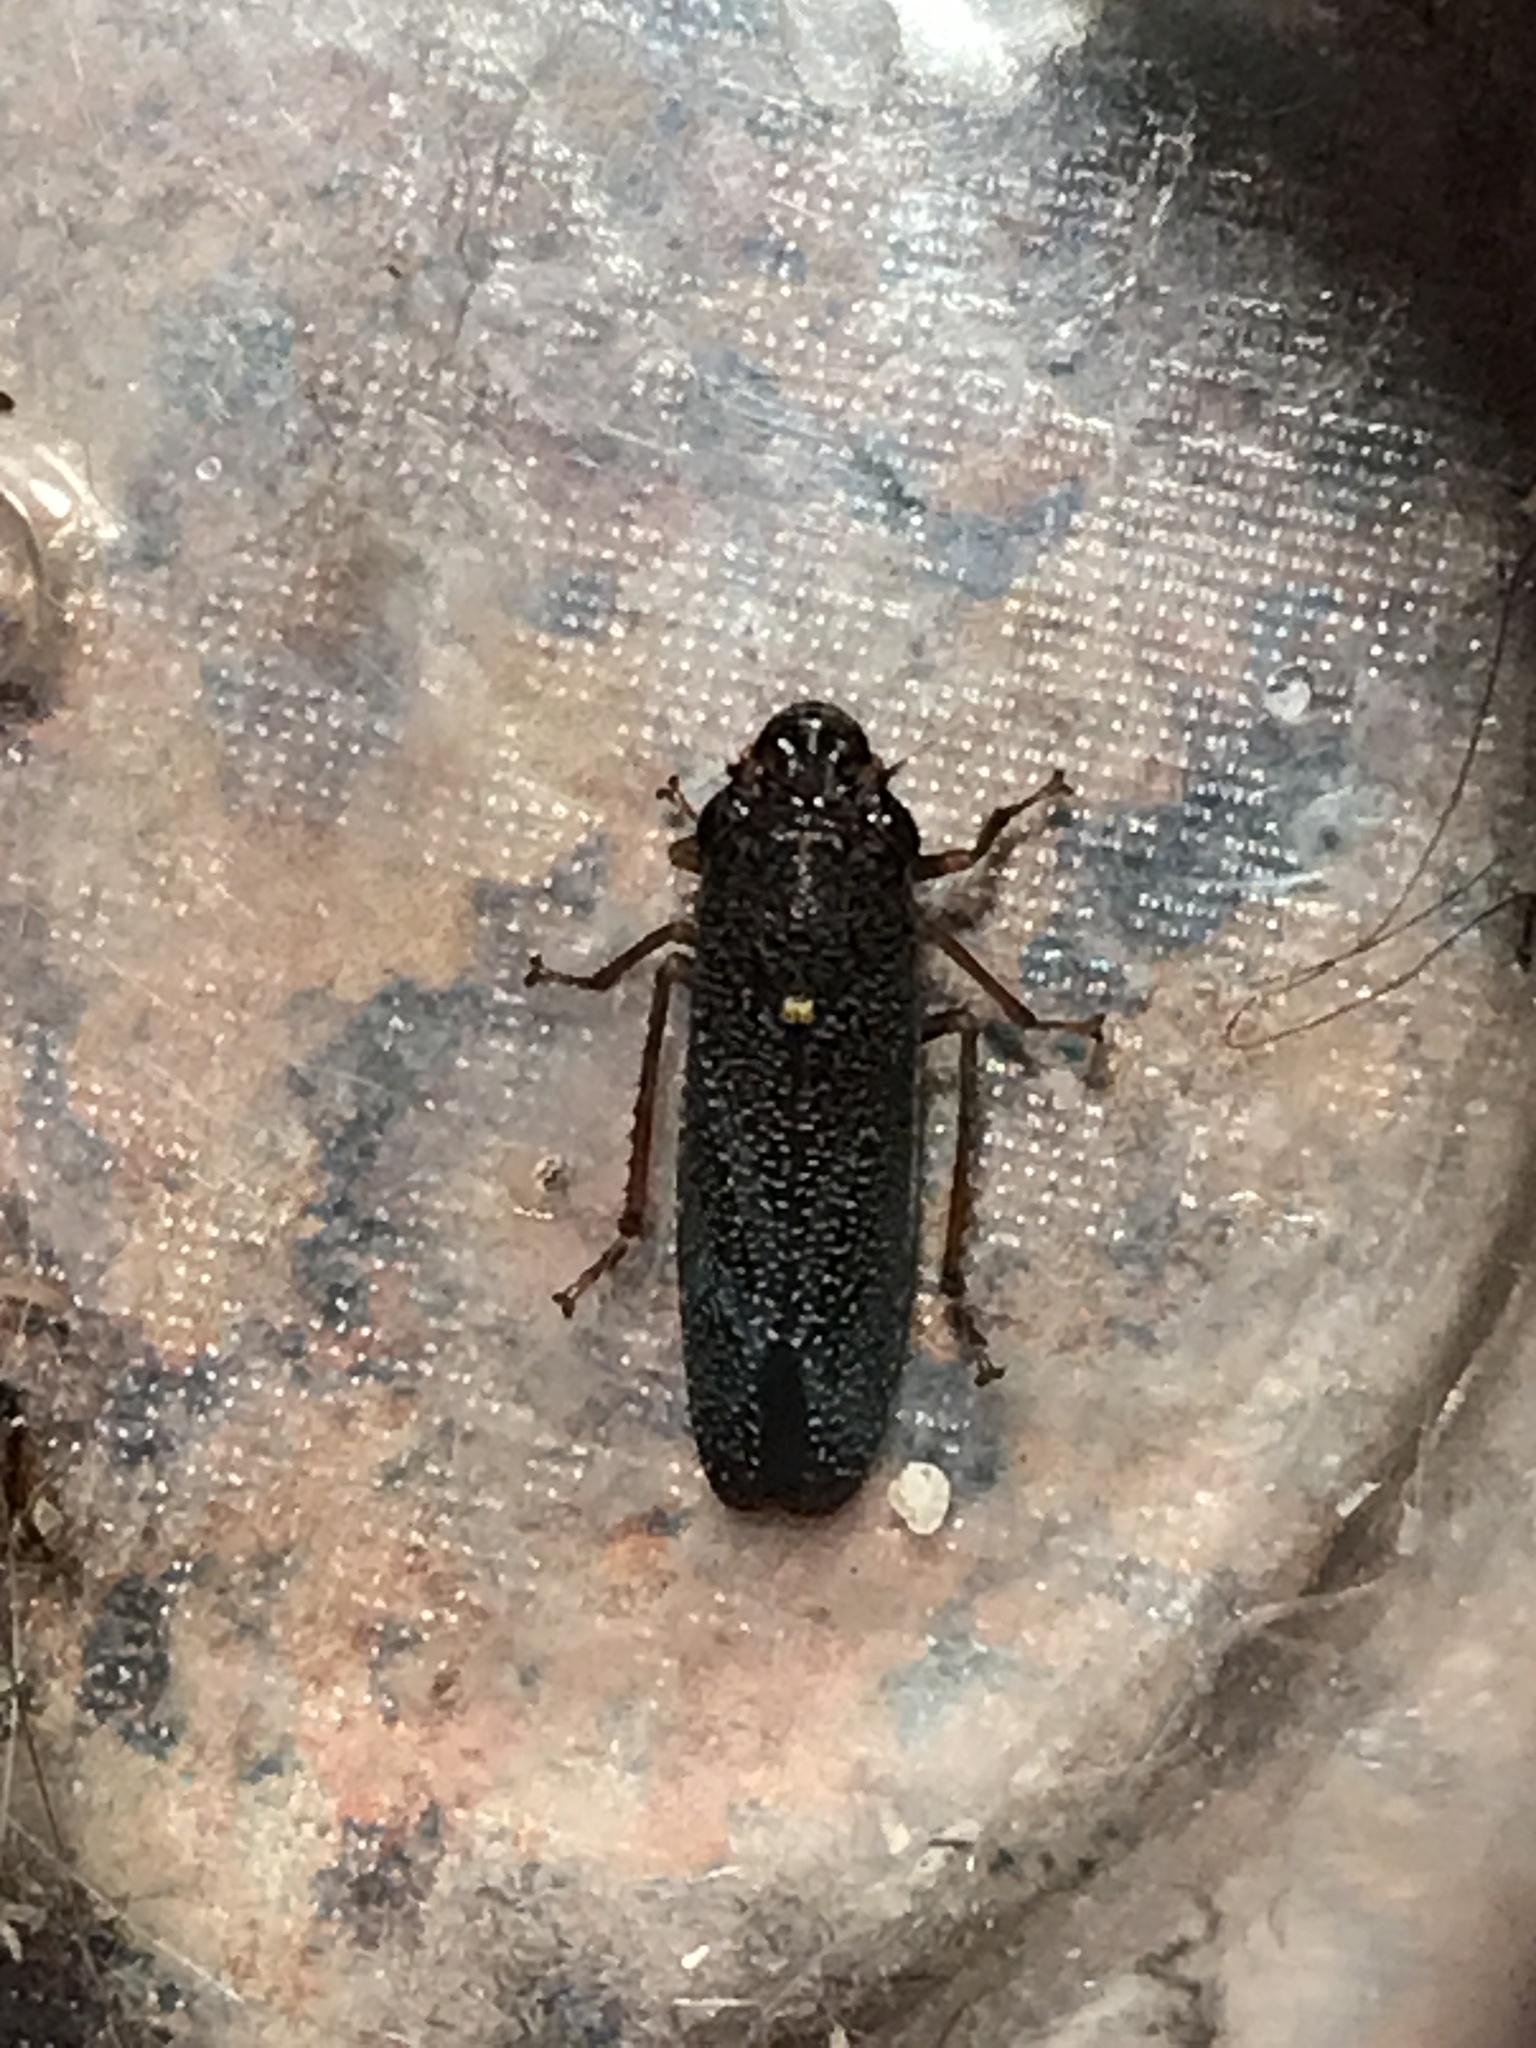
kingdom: Animalia
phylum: Arthropoda
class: Insecta
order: Hemiptera
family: Cicadellidae
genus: Paraulacizes
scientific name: Paraulacizes irrorata
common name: Speckled sharpshooter
